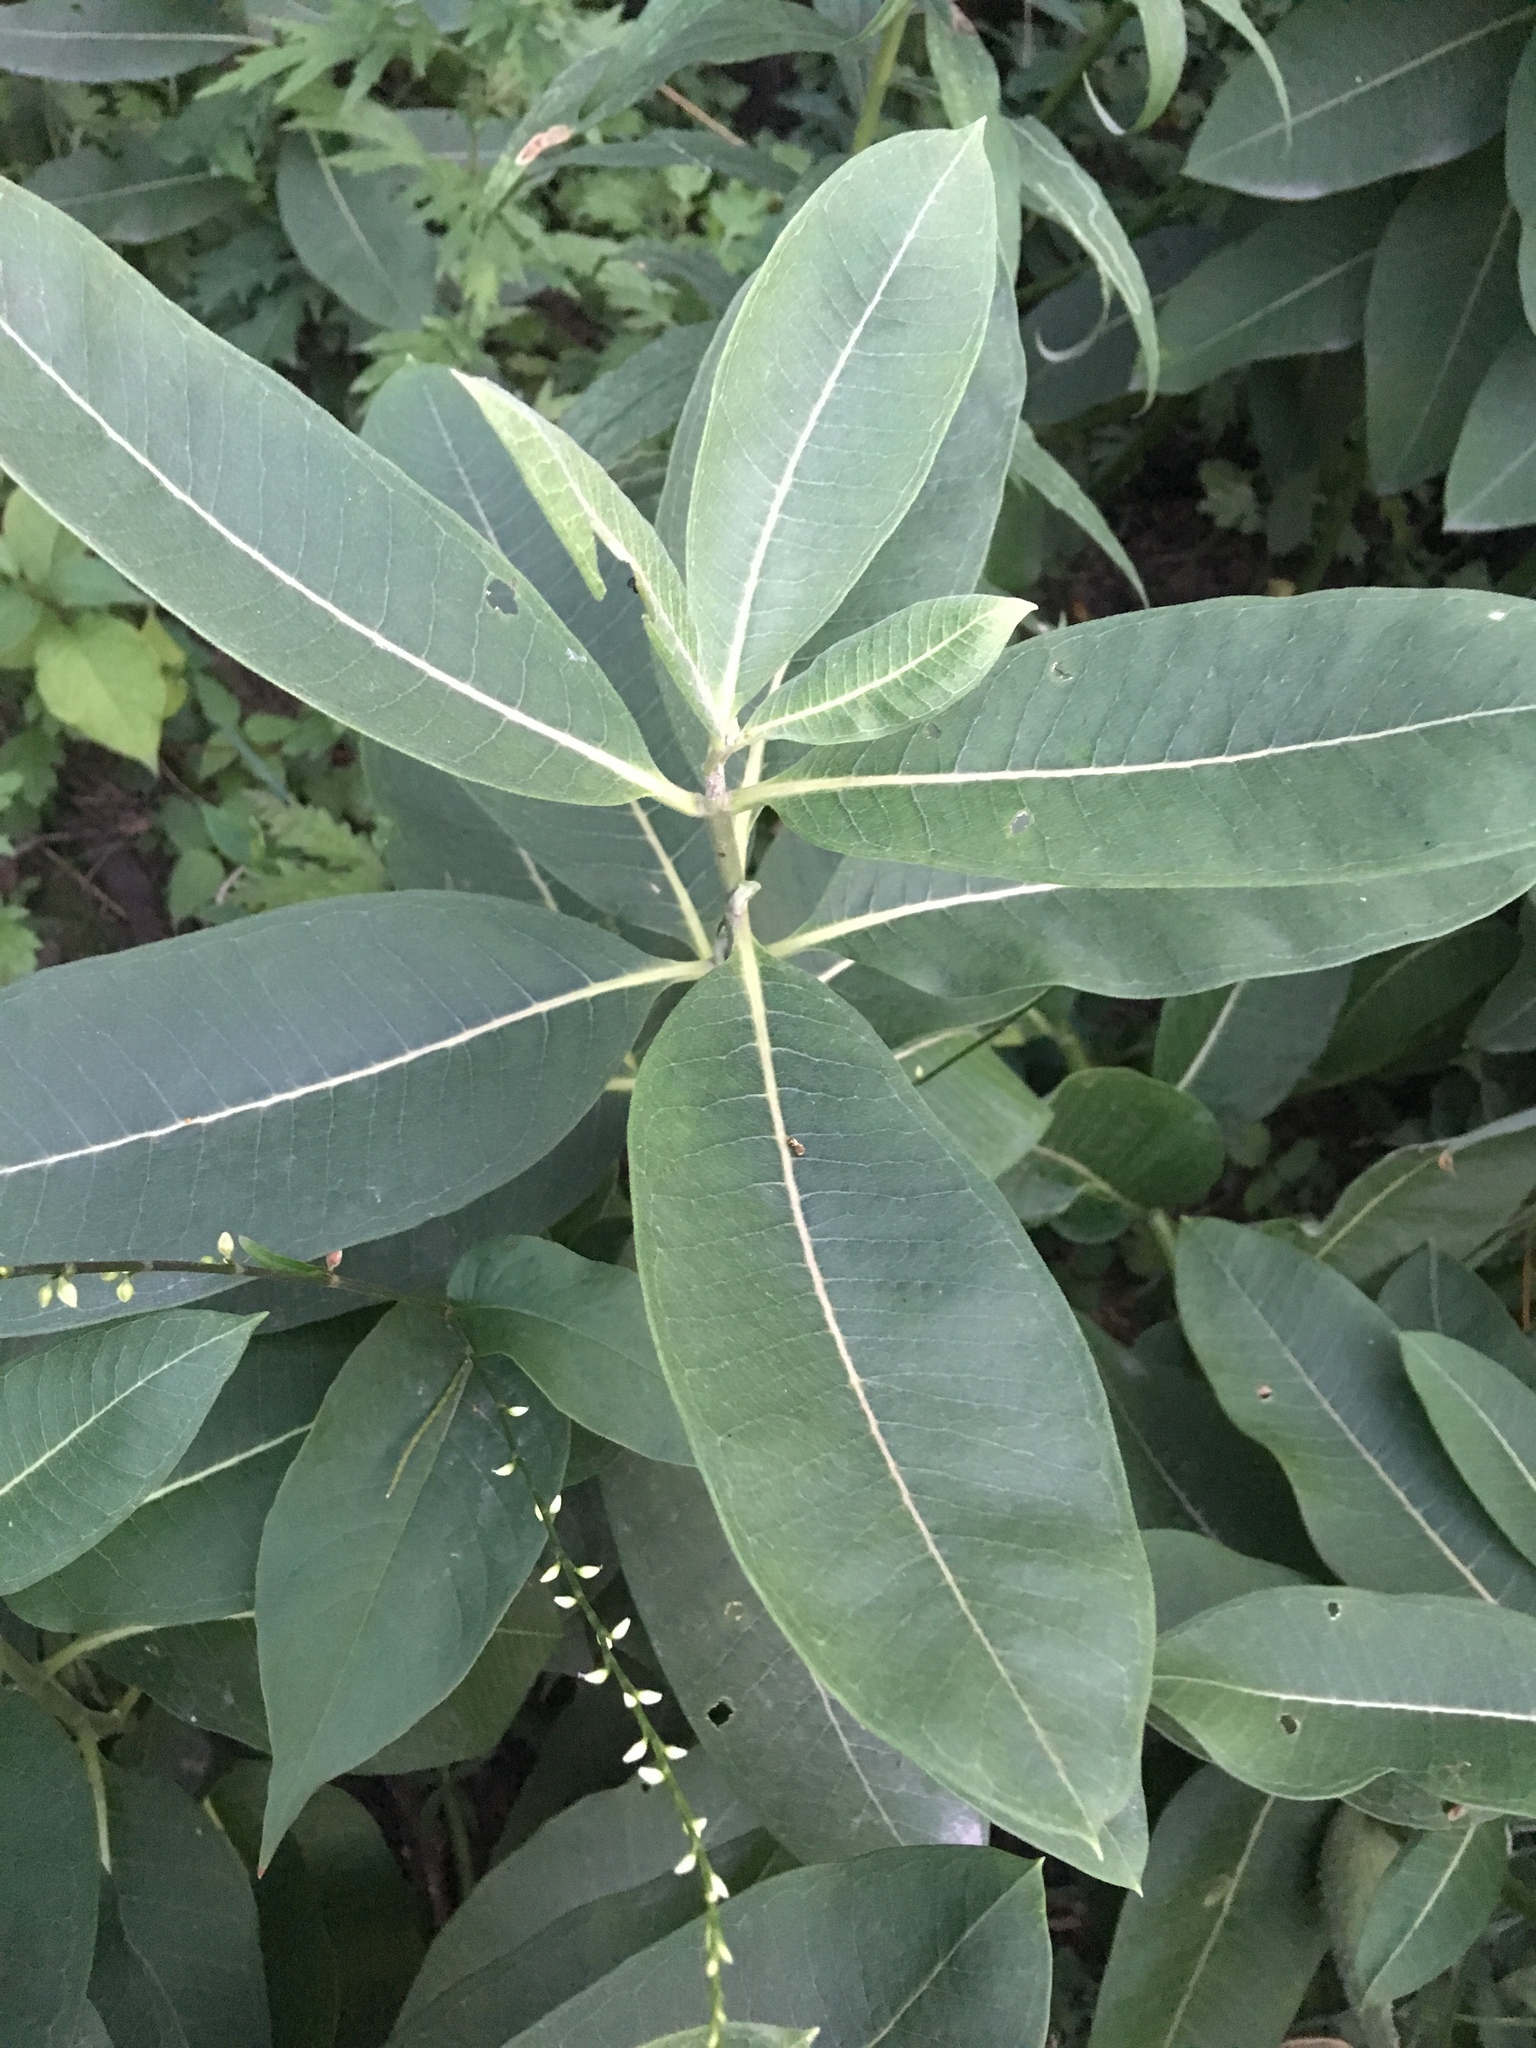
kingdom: Plantae
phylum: Tracheophyta
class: Magnoliopsida
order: Gentianales
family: Apocynaceae
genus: Asclepias
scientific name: Asclepias syriaca
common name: Common milkweed
